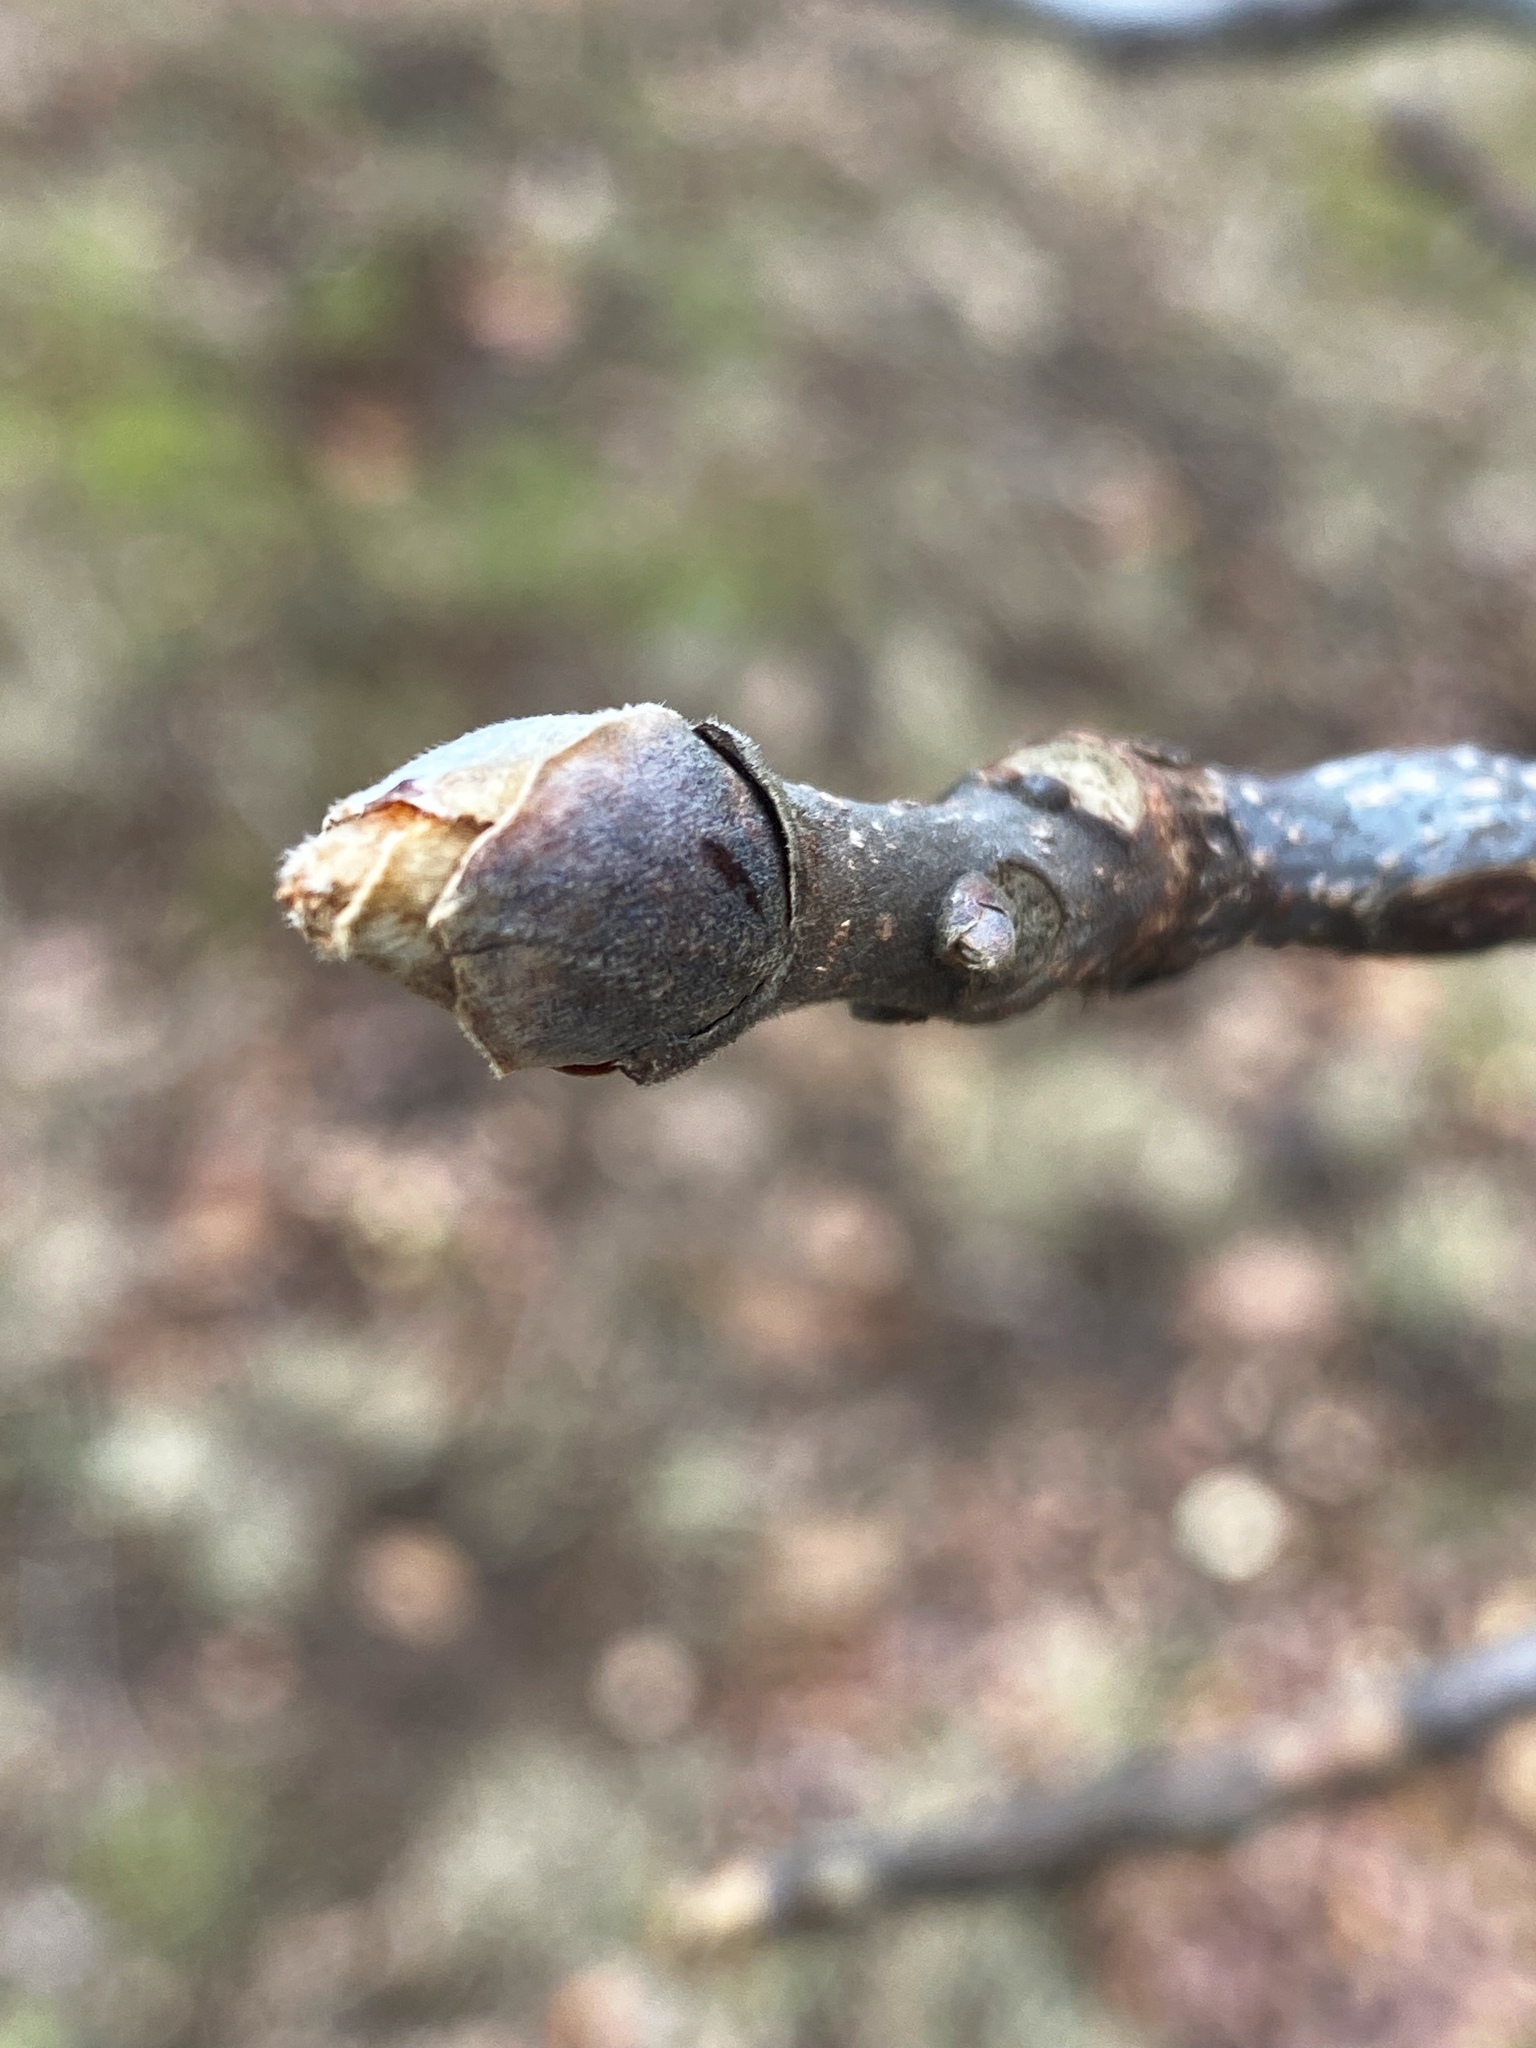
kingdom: Plantae
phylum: Tracheophyta
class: Magnoliopsida
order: Fagales
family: Juglandaceae
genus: Carya
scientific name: Carya ovata
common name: Shagbark hickory
